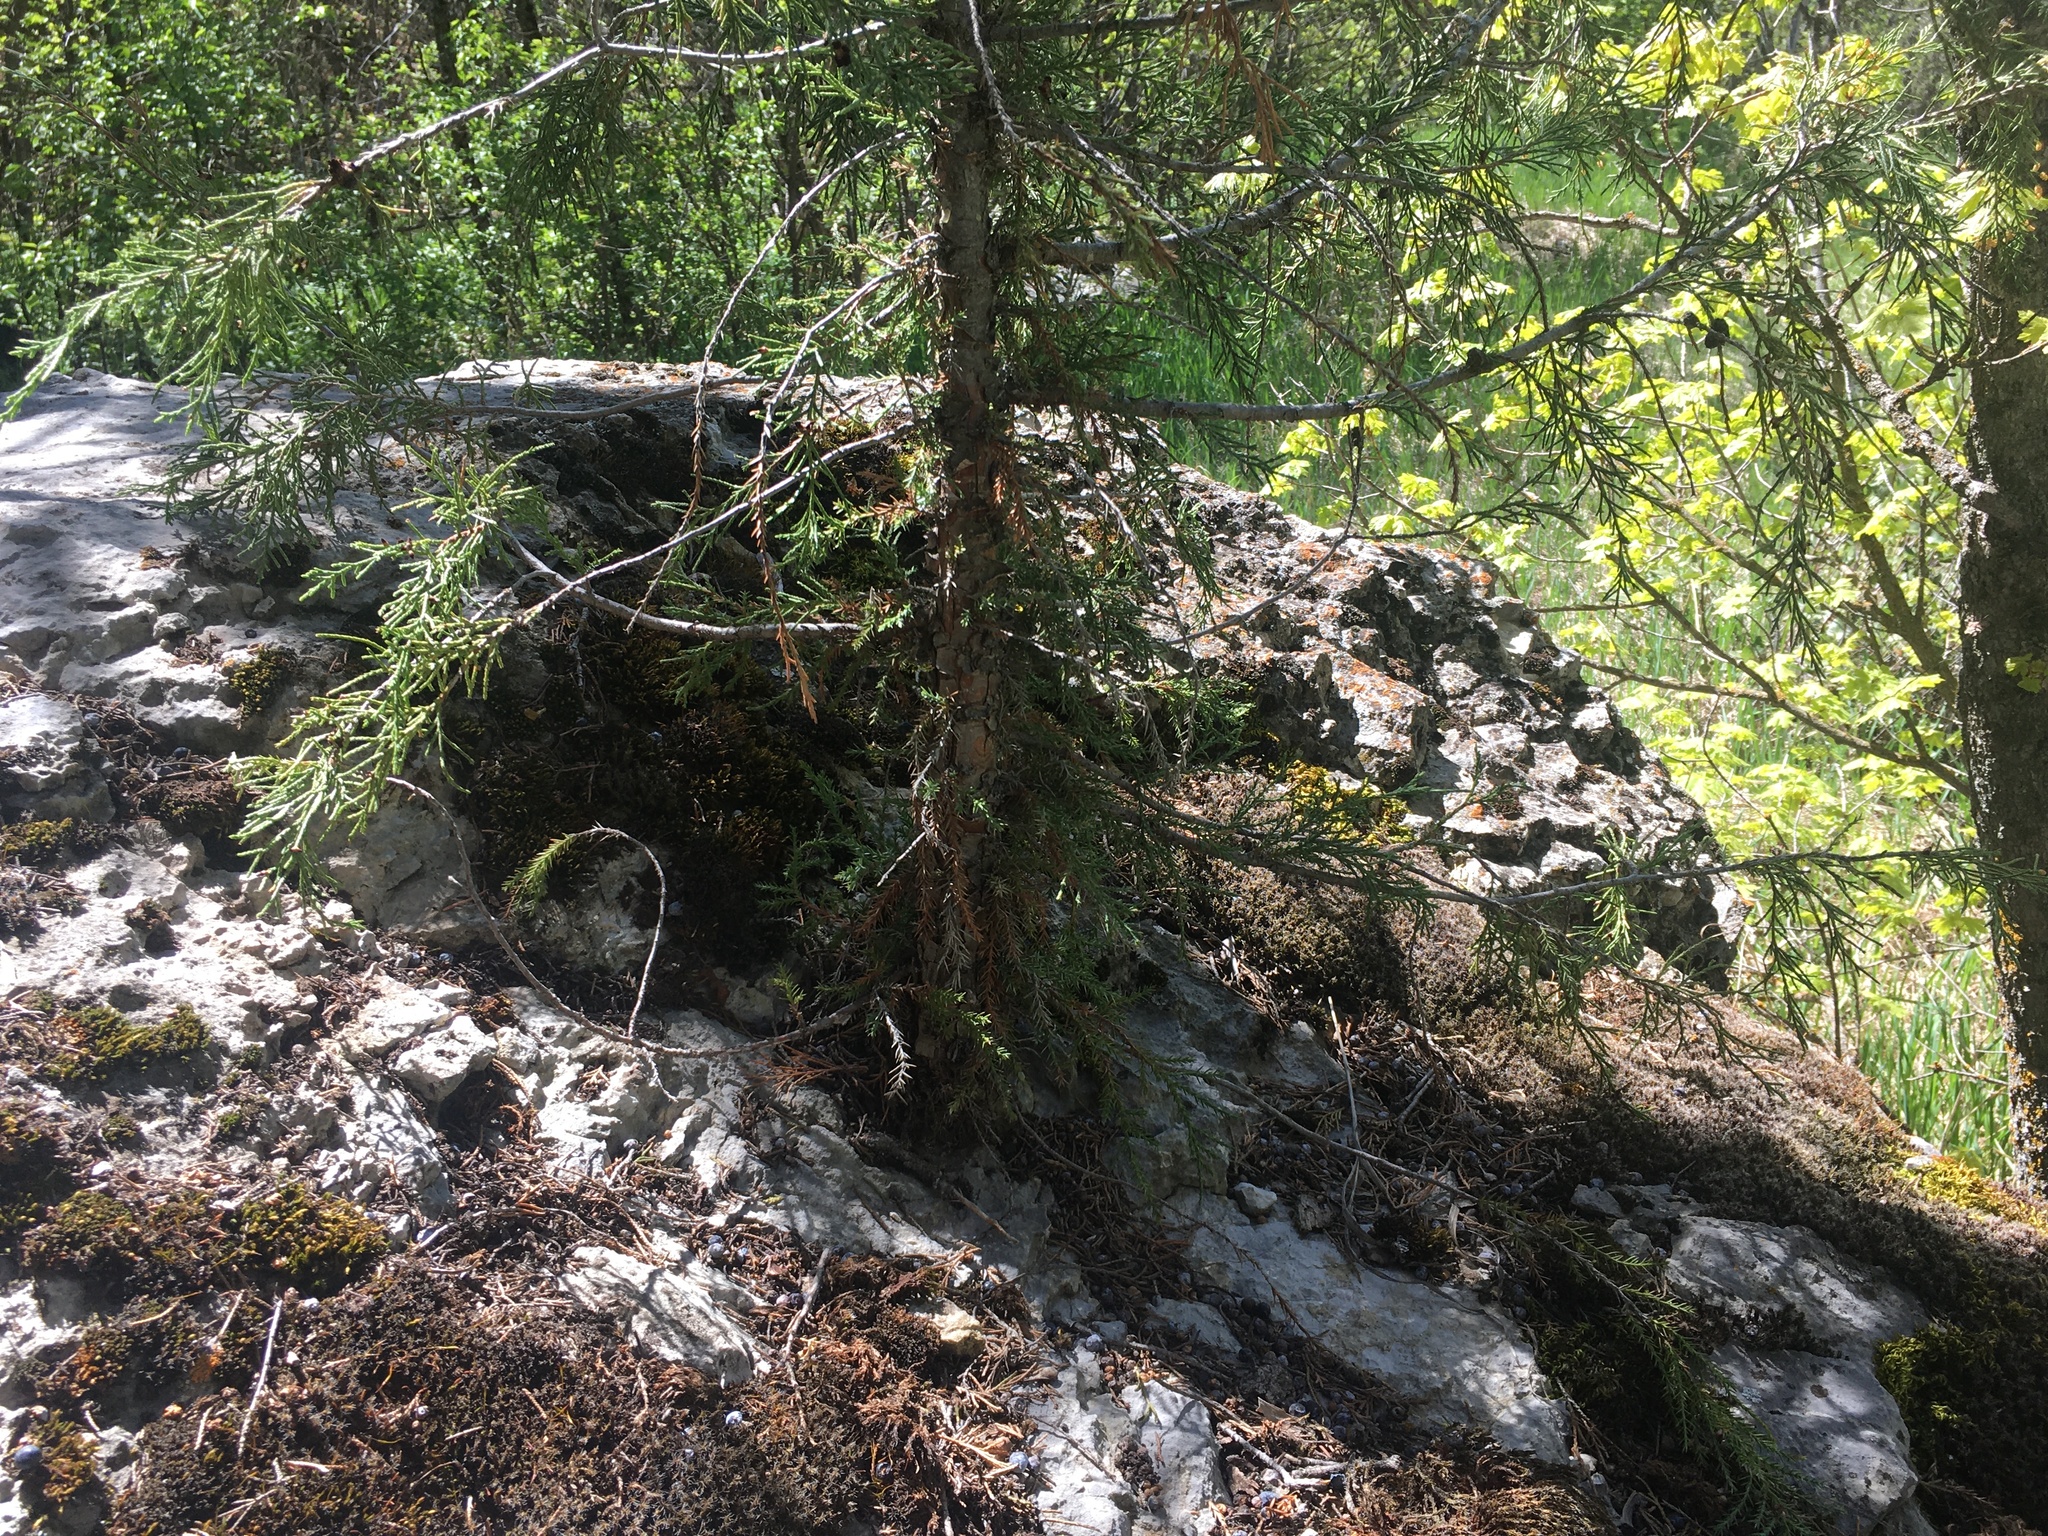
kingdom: Plantae
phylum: Tracheophyta
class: Pinopsida
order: Pinales
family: Cupressaceae
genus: Juniperus
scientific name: Juniperus scopulorum
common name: Rocky mountain juniper
